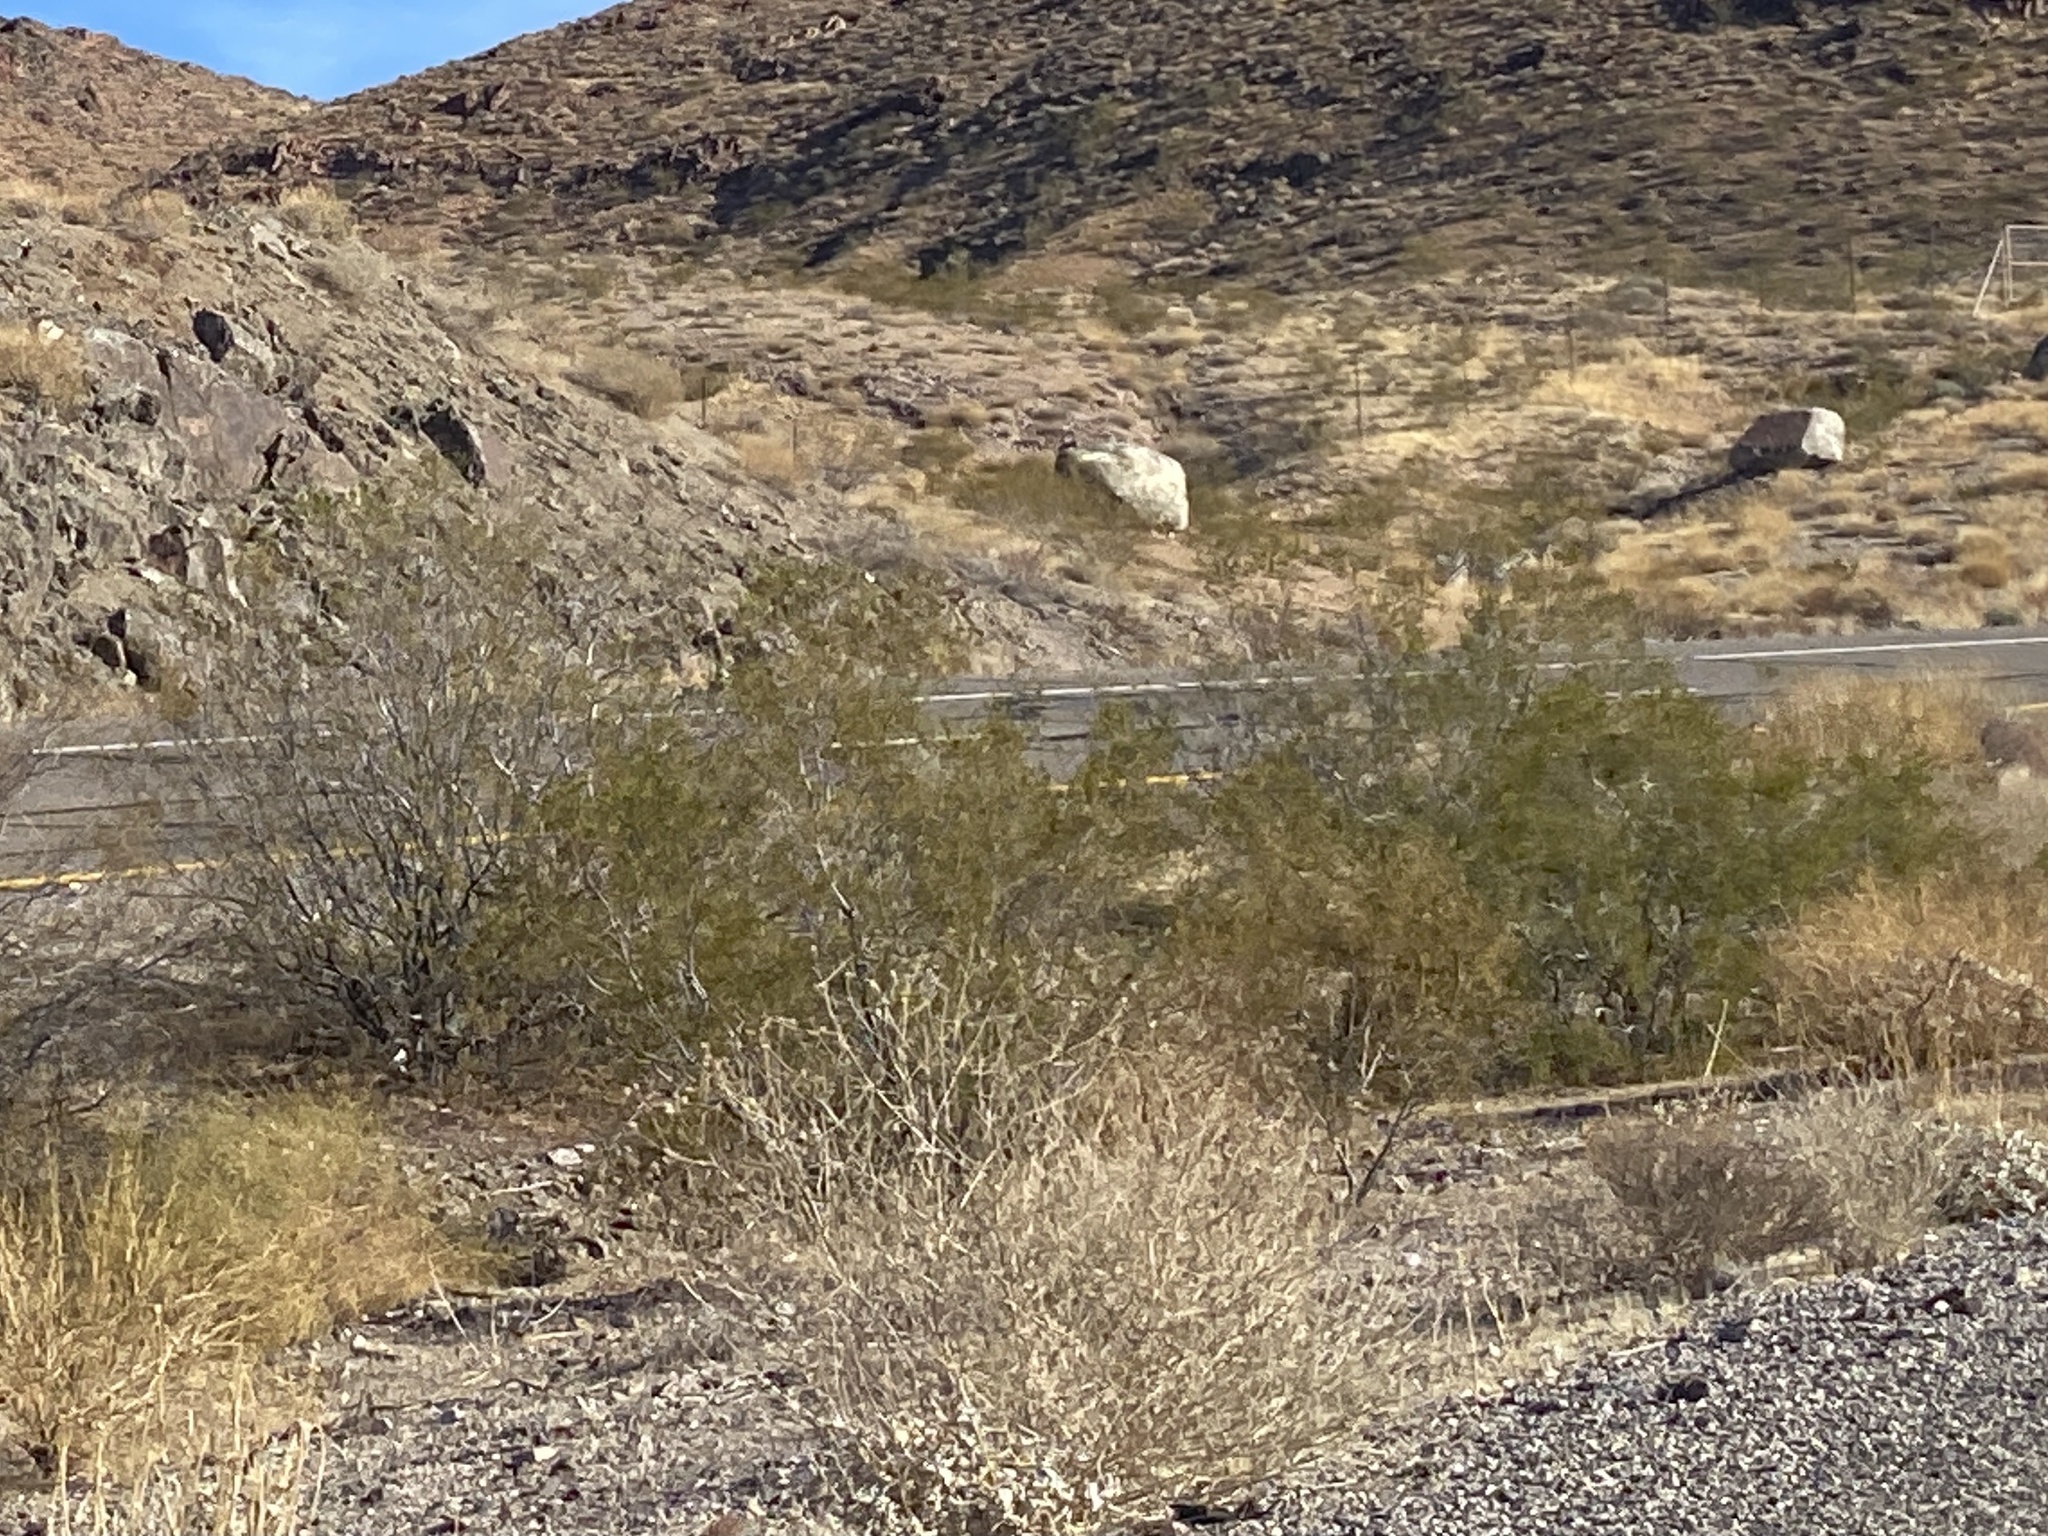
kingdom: Plantae
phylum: Tracheophyta
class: Magnoliopsida
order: Zygophyllales
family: Zygophyllaceae
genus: Larrea
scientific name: Larrea tridentata
